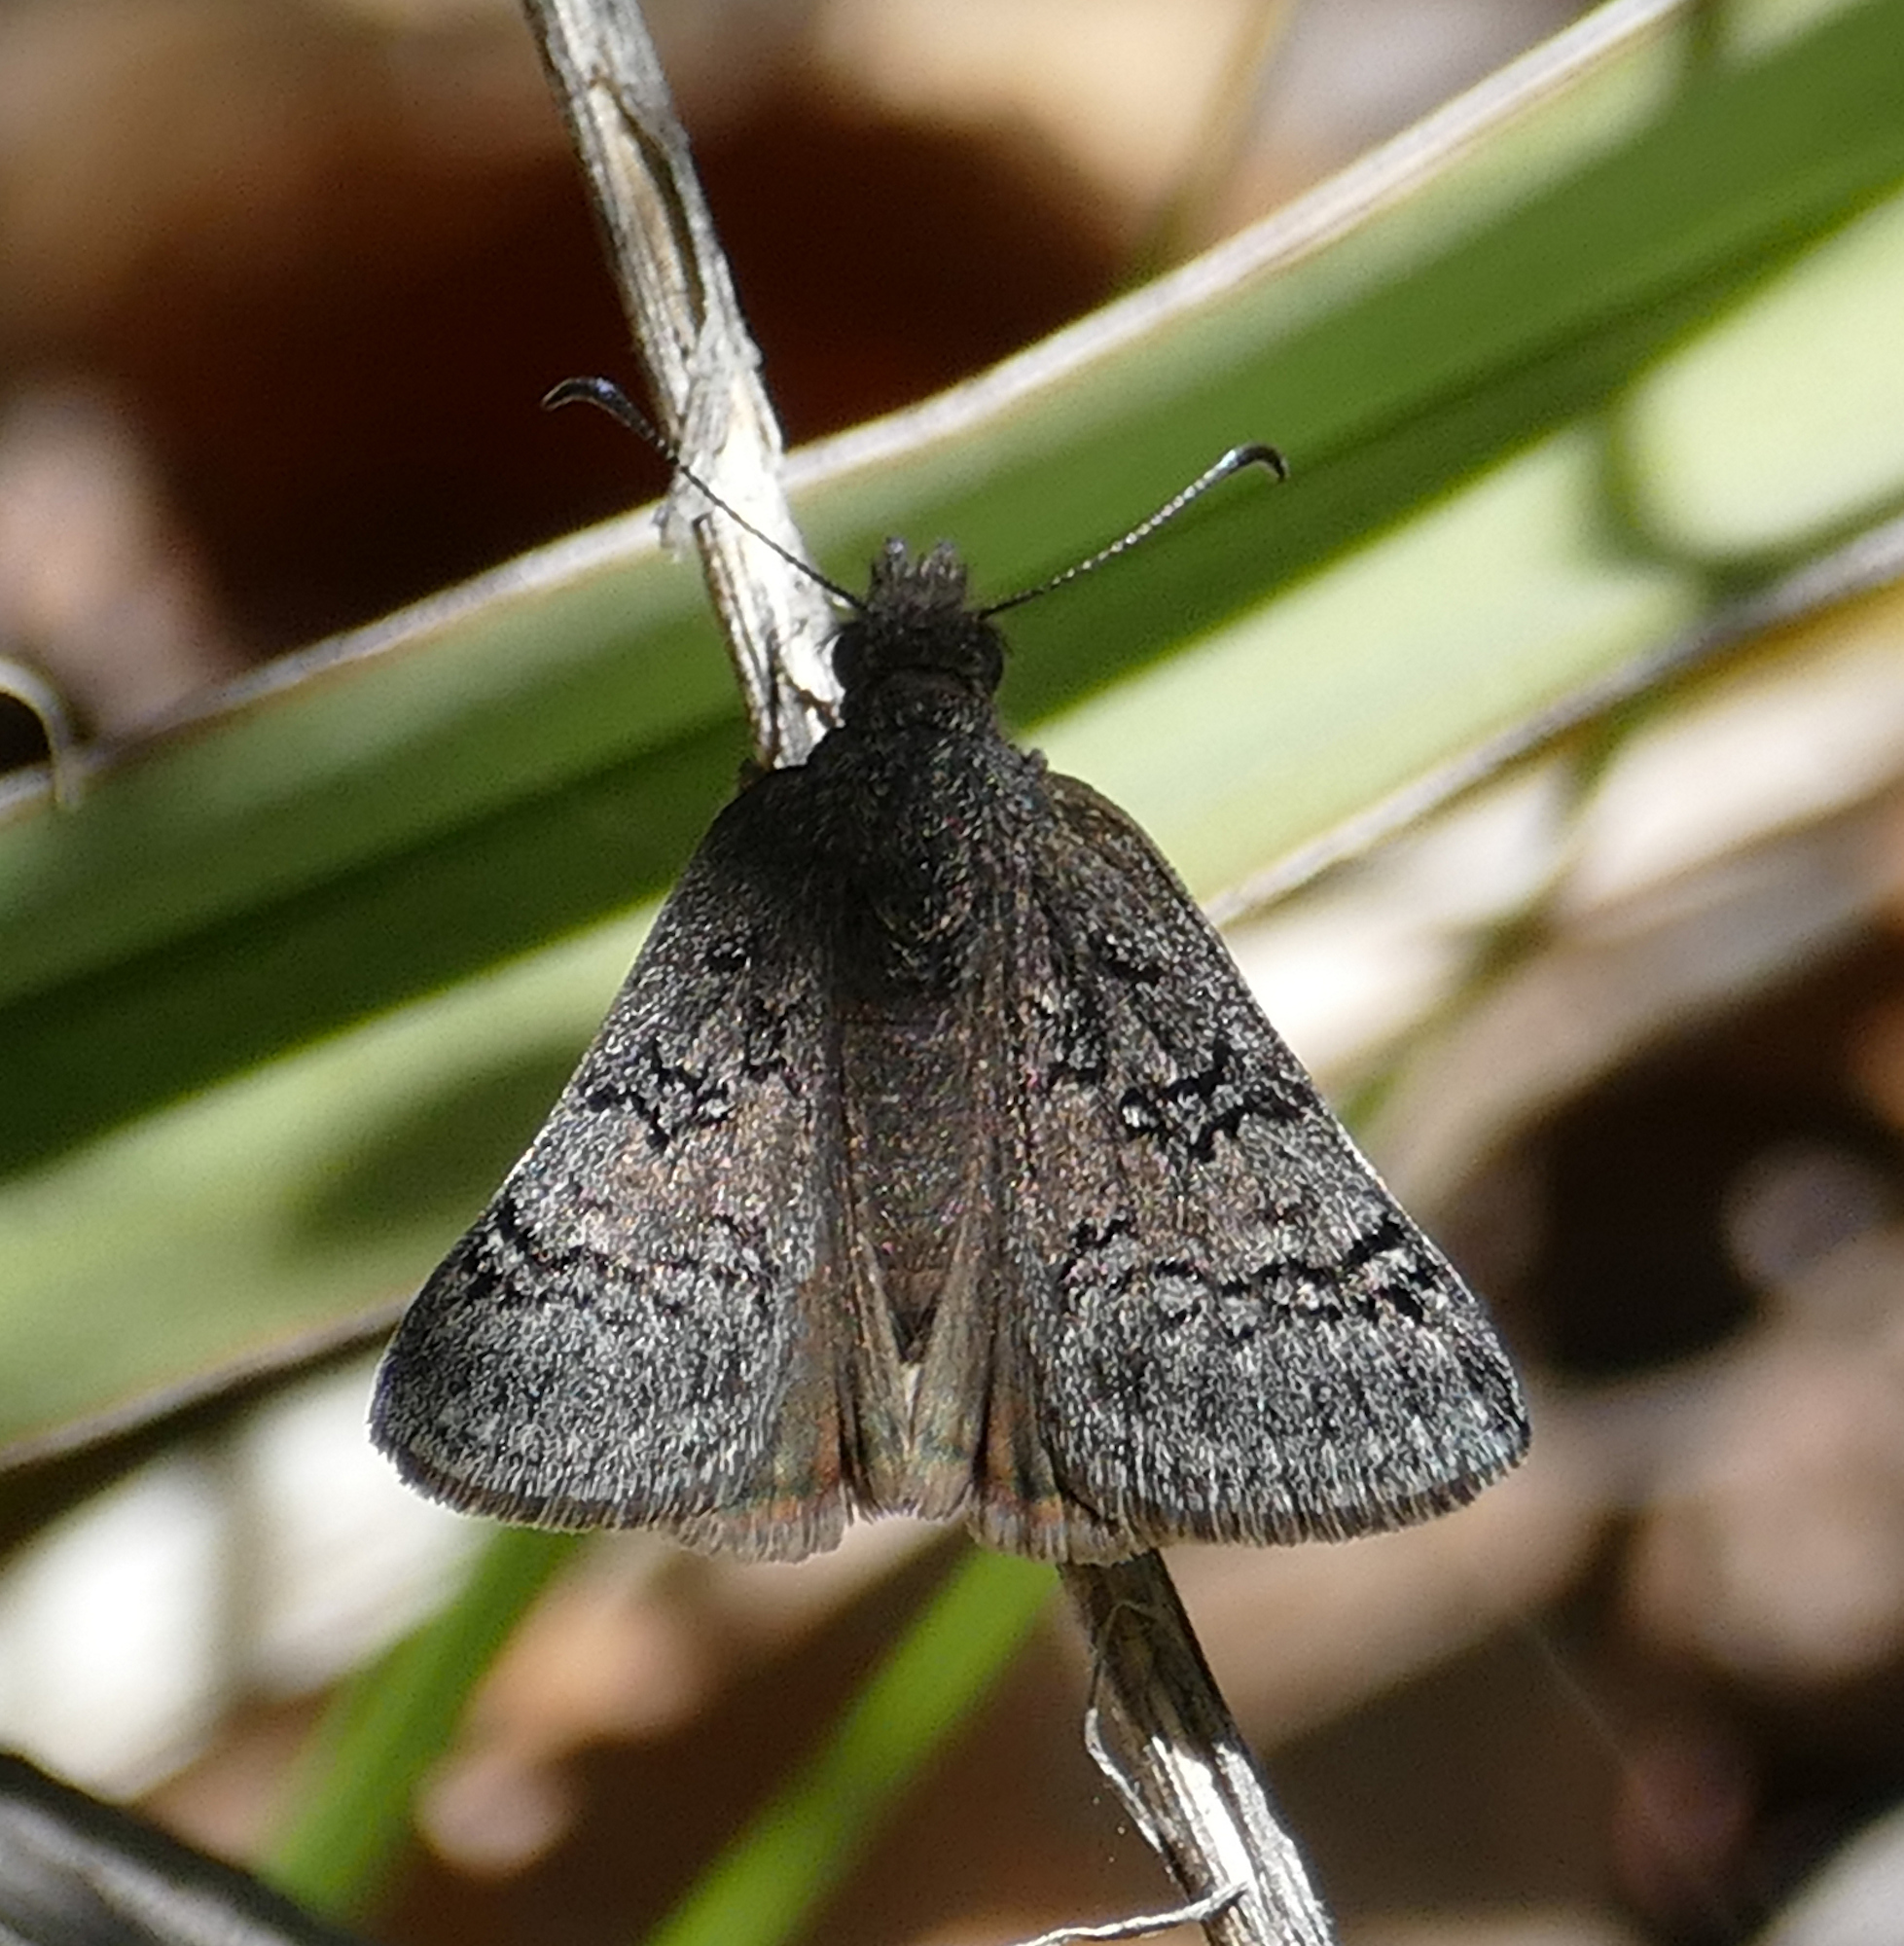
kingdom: Animalia
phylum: Arthropoda
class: Insecta
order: Lepidoptera
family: Hesperiidae
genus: Erynnis
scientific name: Erynnis brizo
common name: Sleepy duskywing
